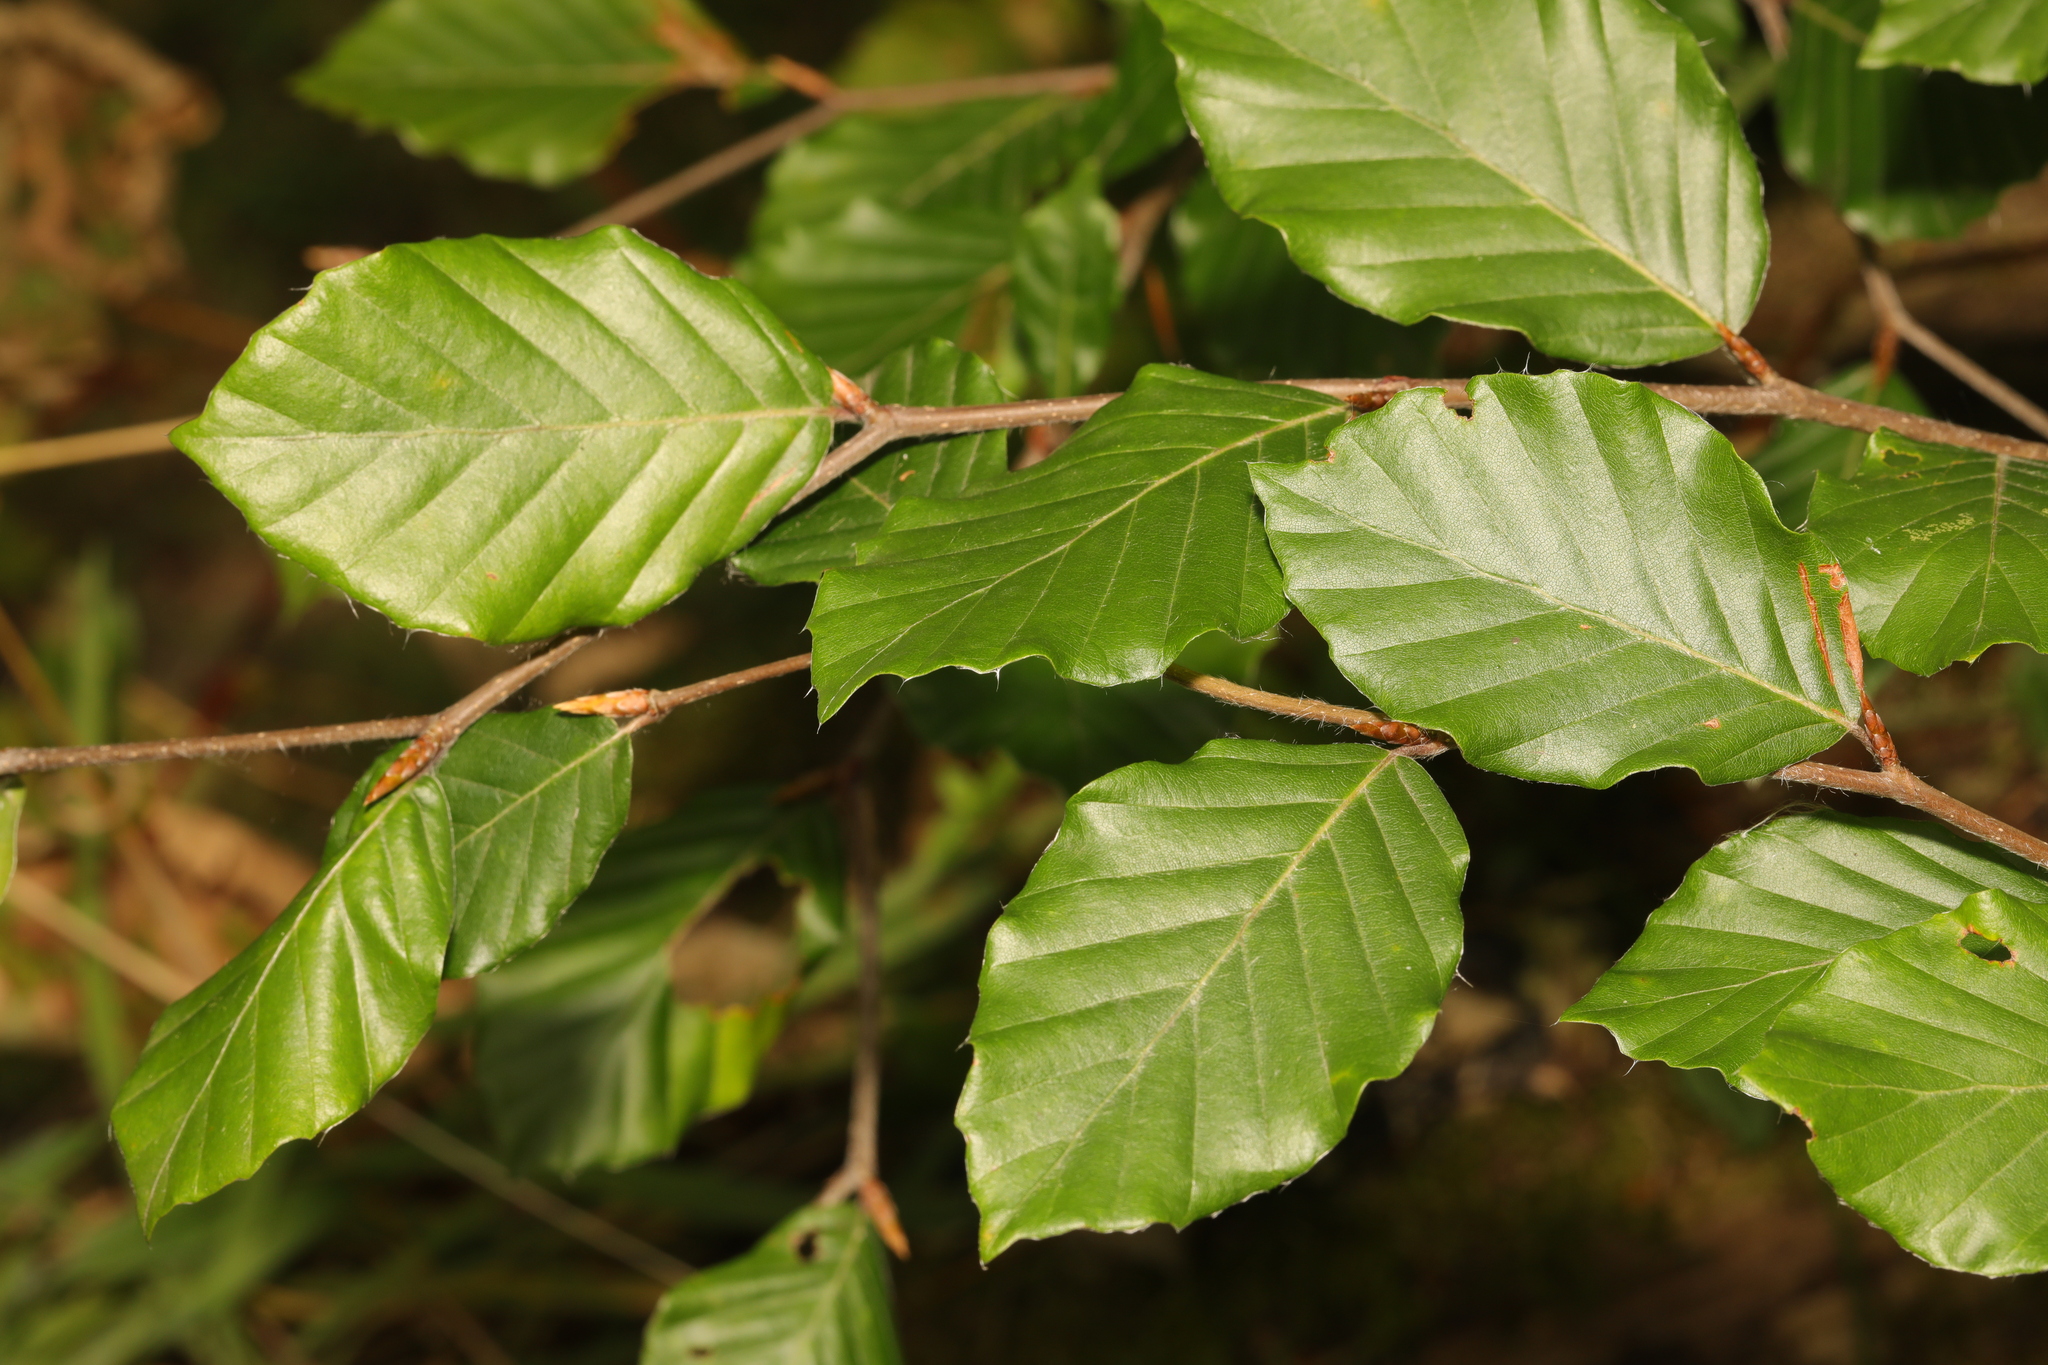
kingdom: Plantae
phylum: Tracheophyta
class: Magnoliopsida
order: Fagales
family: Fagaceae
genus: Fagus
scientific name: Fagus sylvatica
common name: Beech
